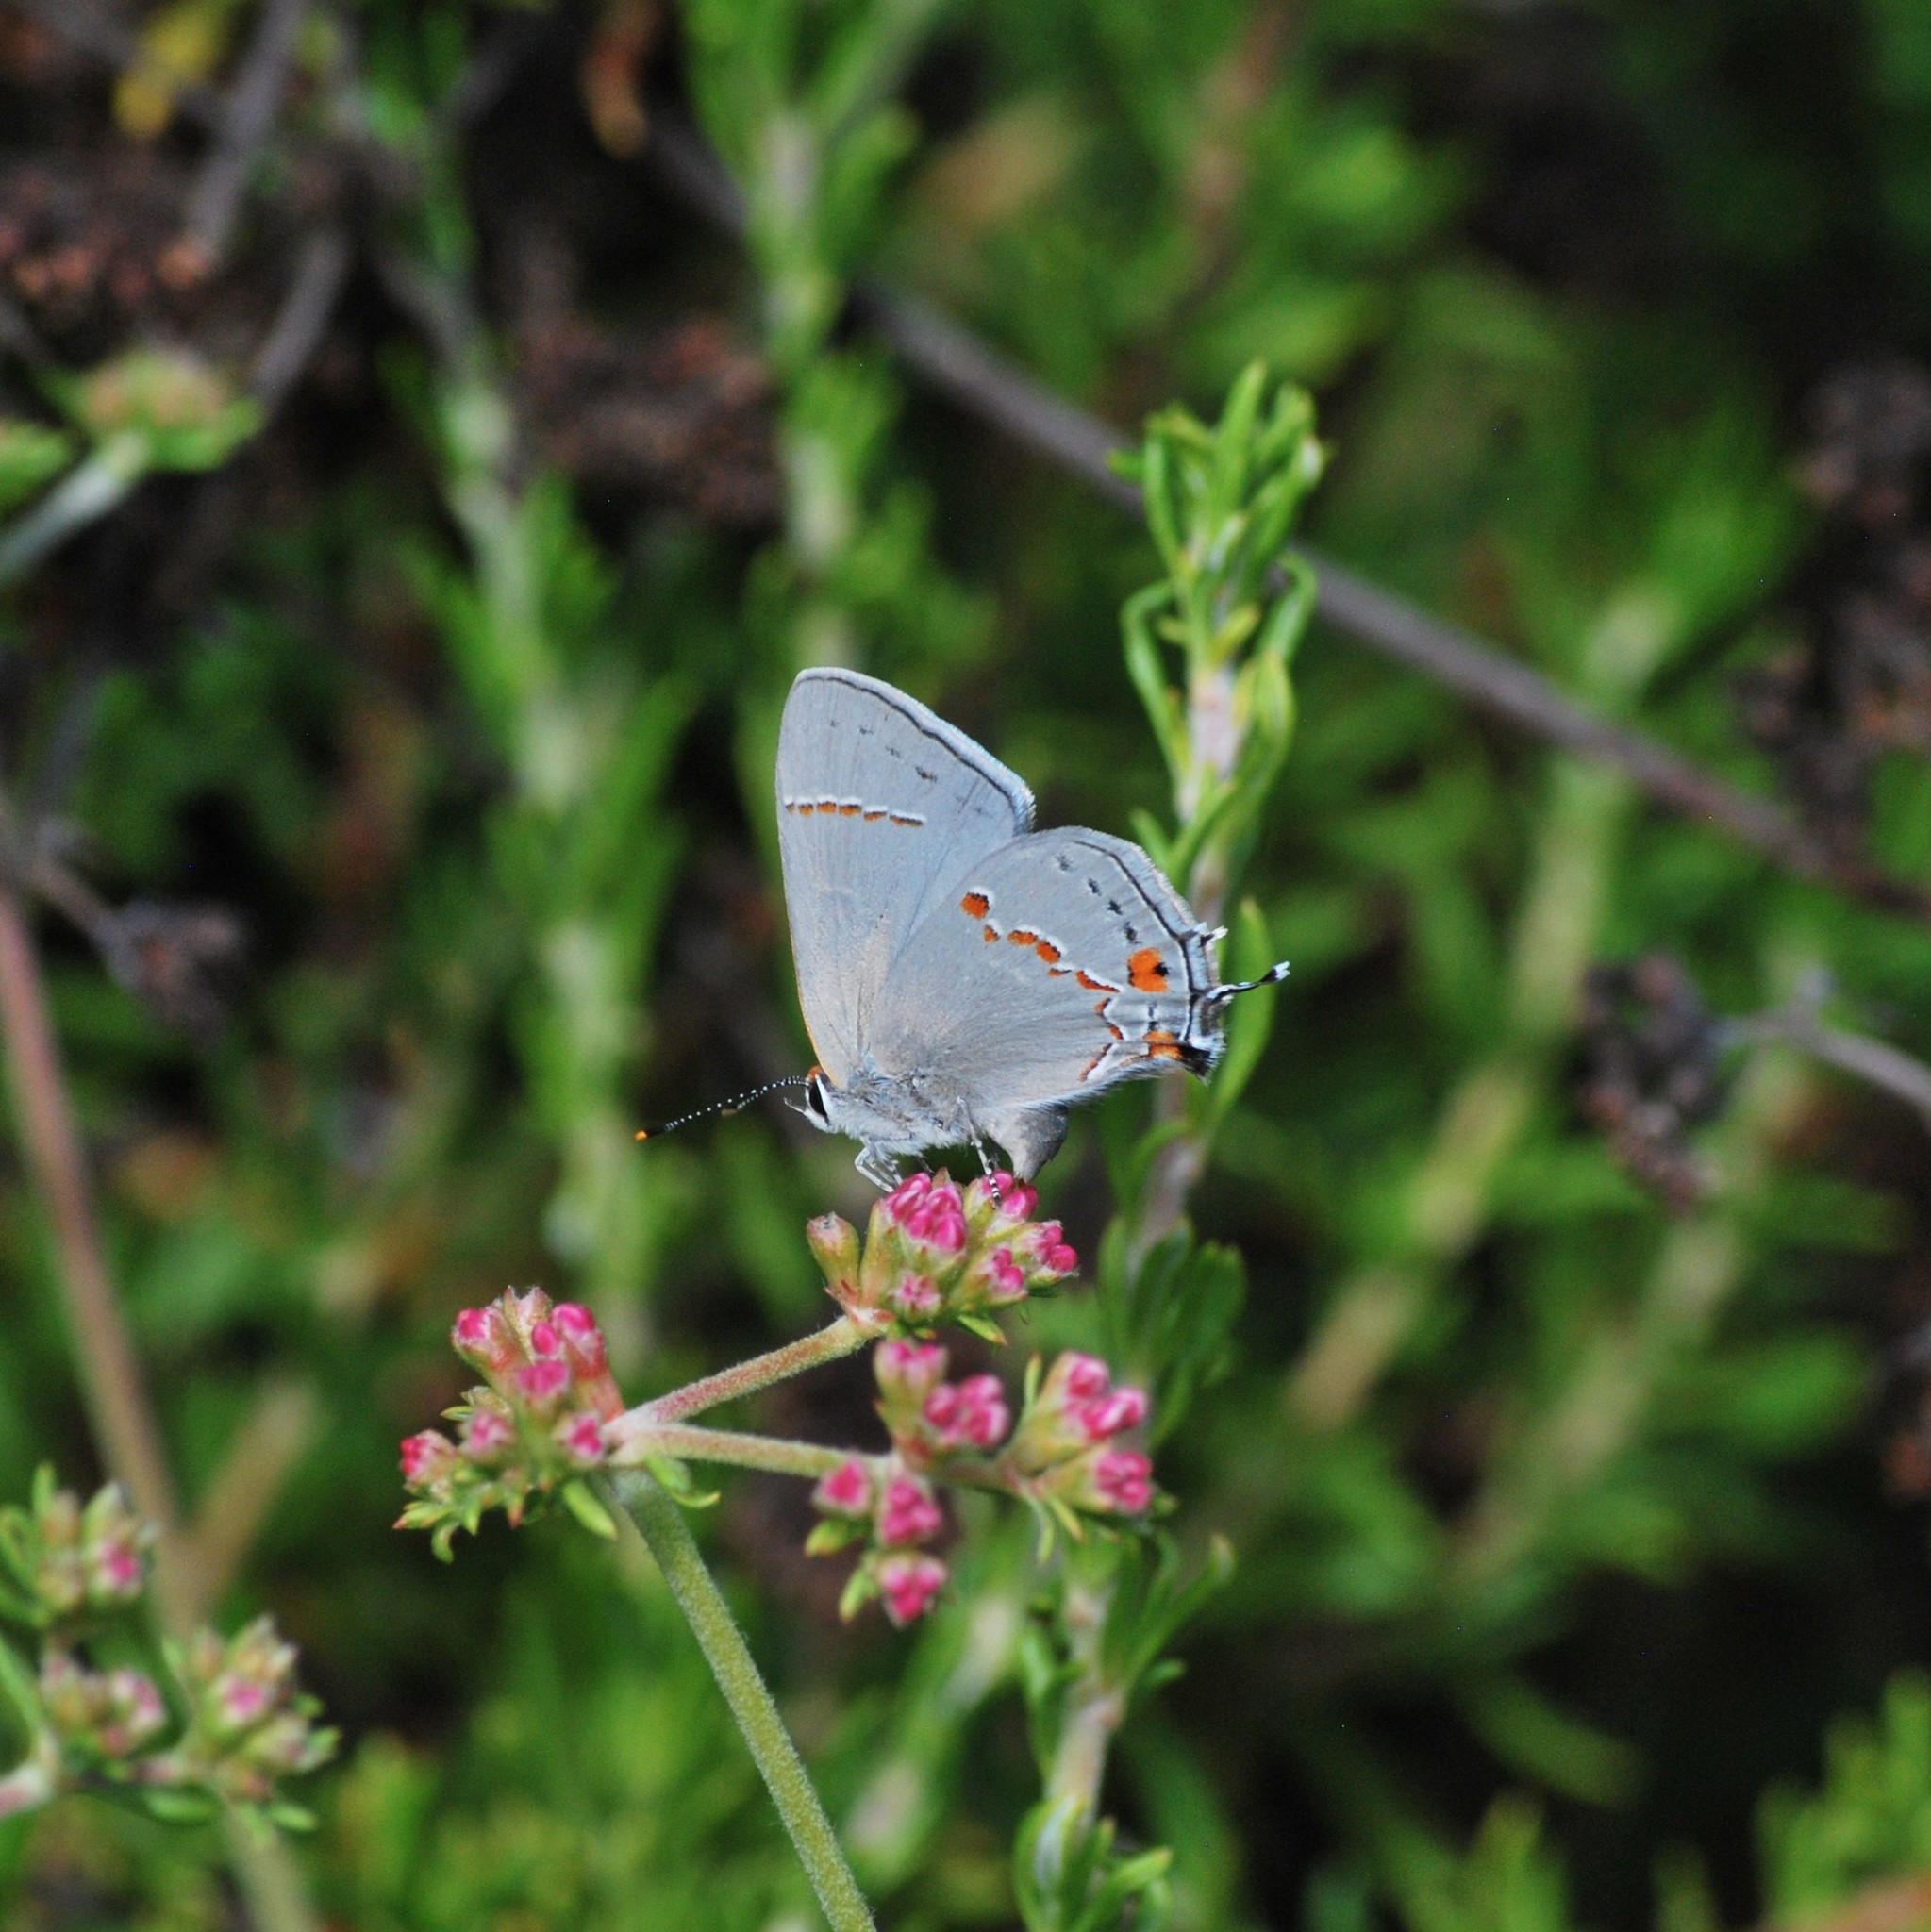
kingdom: Animalia
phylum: Arthropoda
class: Insecta
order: Lepidoptera
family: Lycaenidae
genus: Strymon
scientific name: Strymon melinus
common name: Gray hairstreak
